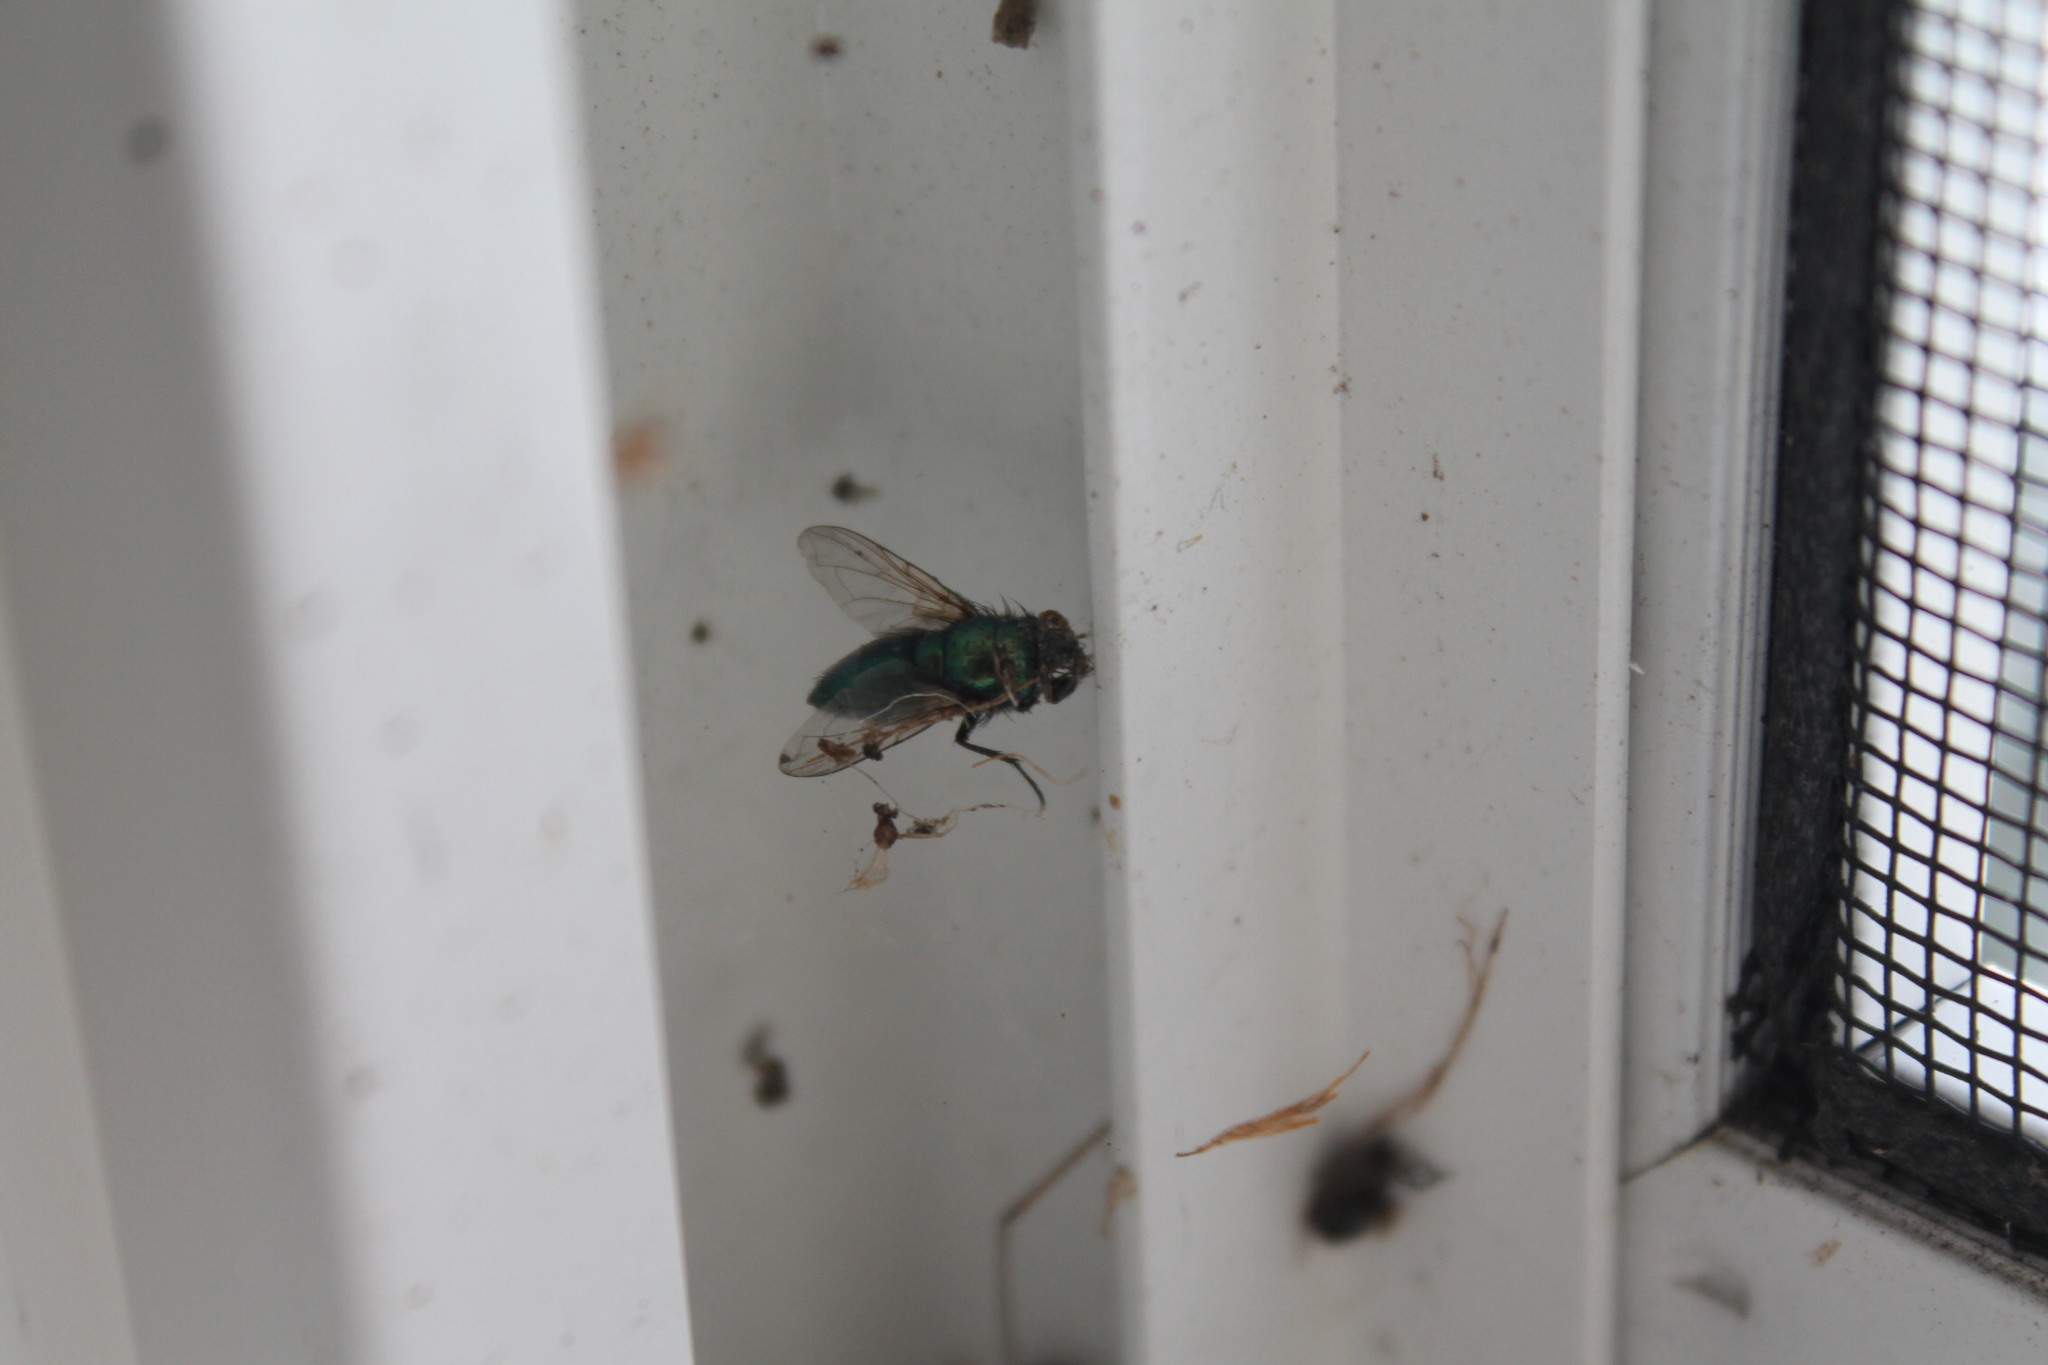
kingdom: Animalia
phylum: Arthropoda
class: Insecta
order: Diptera
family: Calliphoridae
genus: Lucilia
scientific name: Lucilia sericata
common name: Blow fly
